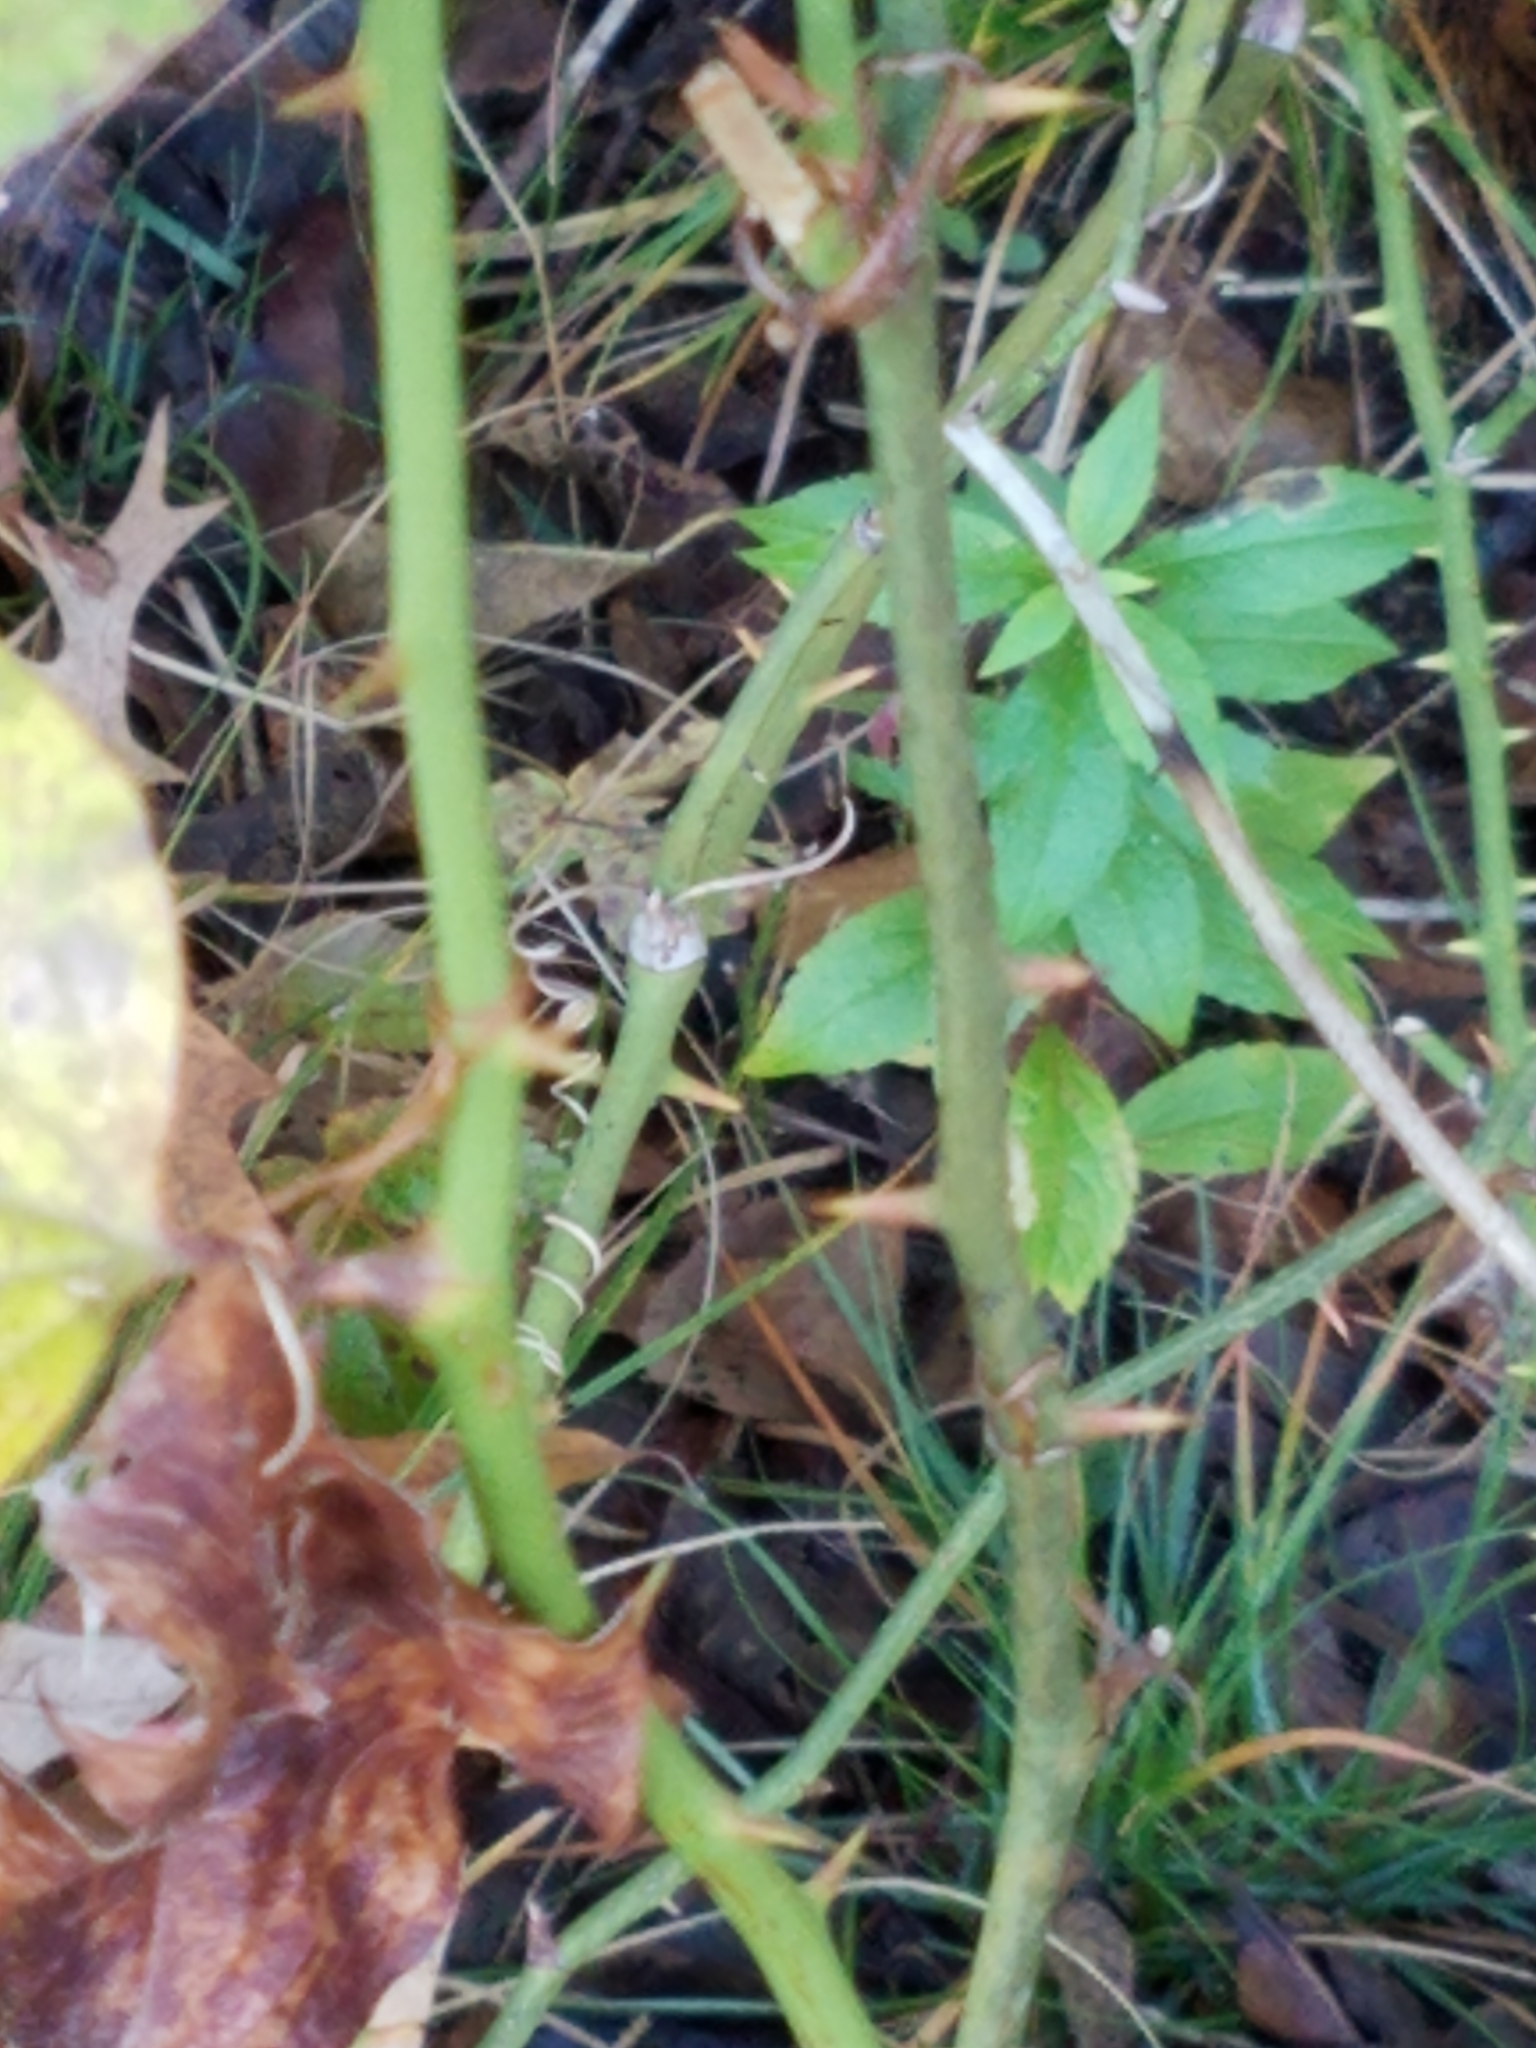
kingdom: Plantae
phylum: Tracheophyta
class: Liliopsida
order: Liliales
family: Smilacaceae
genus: Smilax
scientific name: Smilax rotundifolia
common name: Bullbriar
